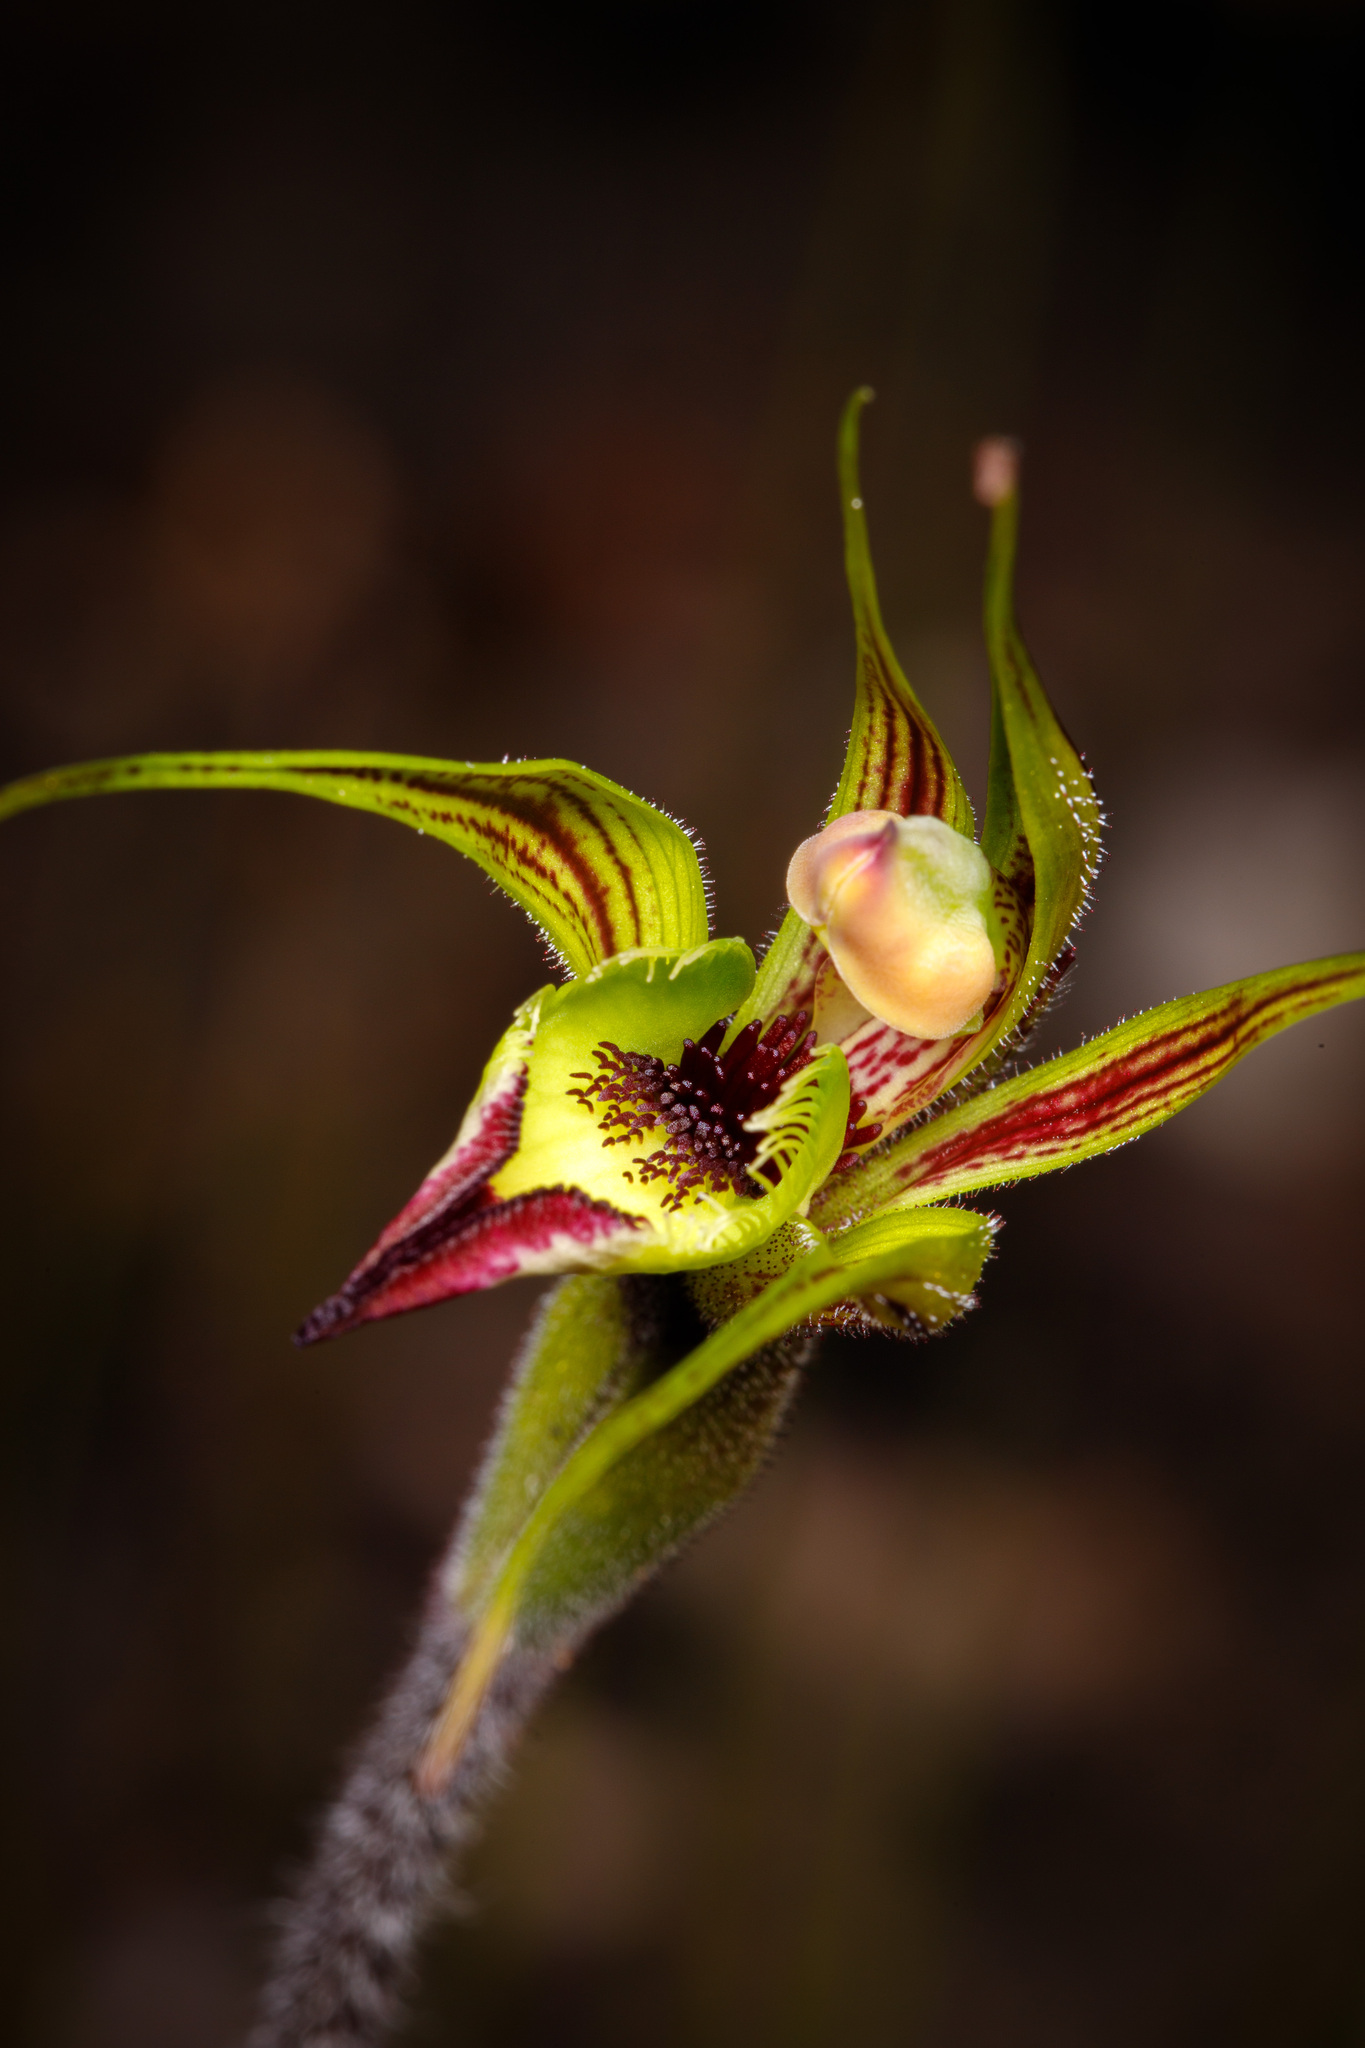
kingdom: Plantae
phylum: Tracheophyta
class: Liliopsida
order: Asparagales
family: Orchidaceae
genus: Caladenia
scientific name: Caladenia lobata
